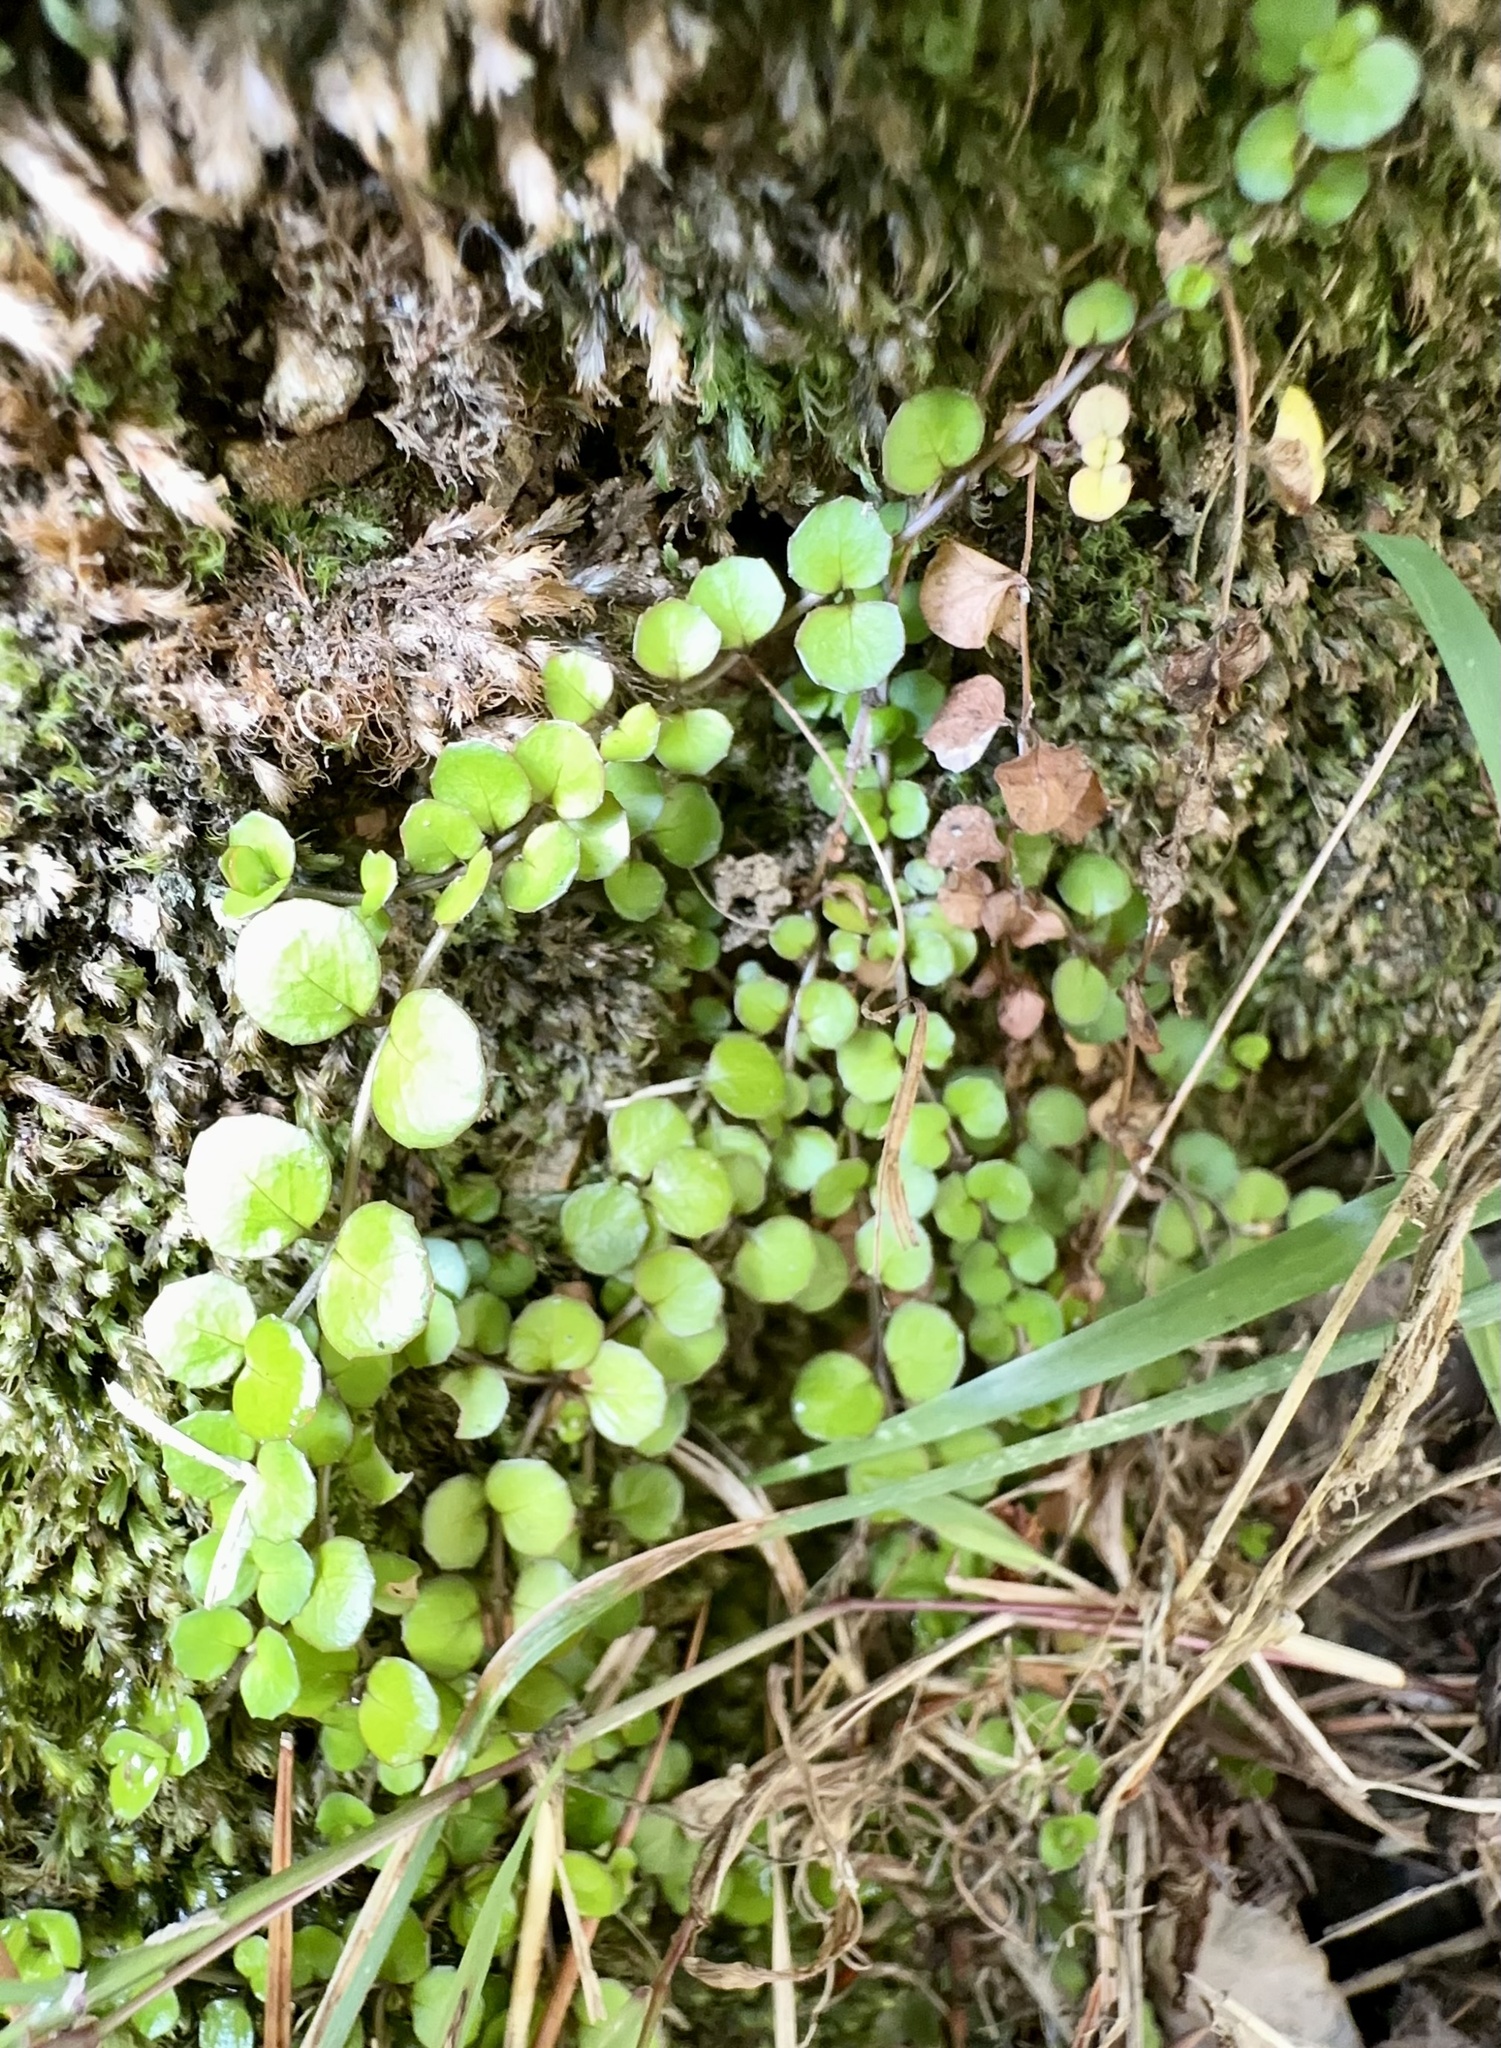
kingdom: Plantae
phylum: Tracheophyta
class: Magnoliopsida
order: Myrtales
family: Onagraceae
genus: Epilobium
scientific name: Epilobium nummularifolium
